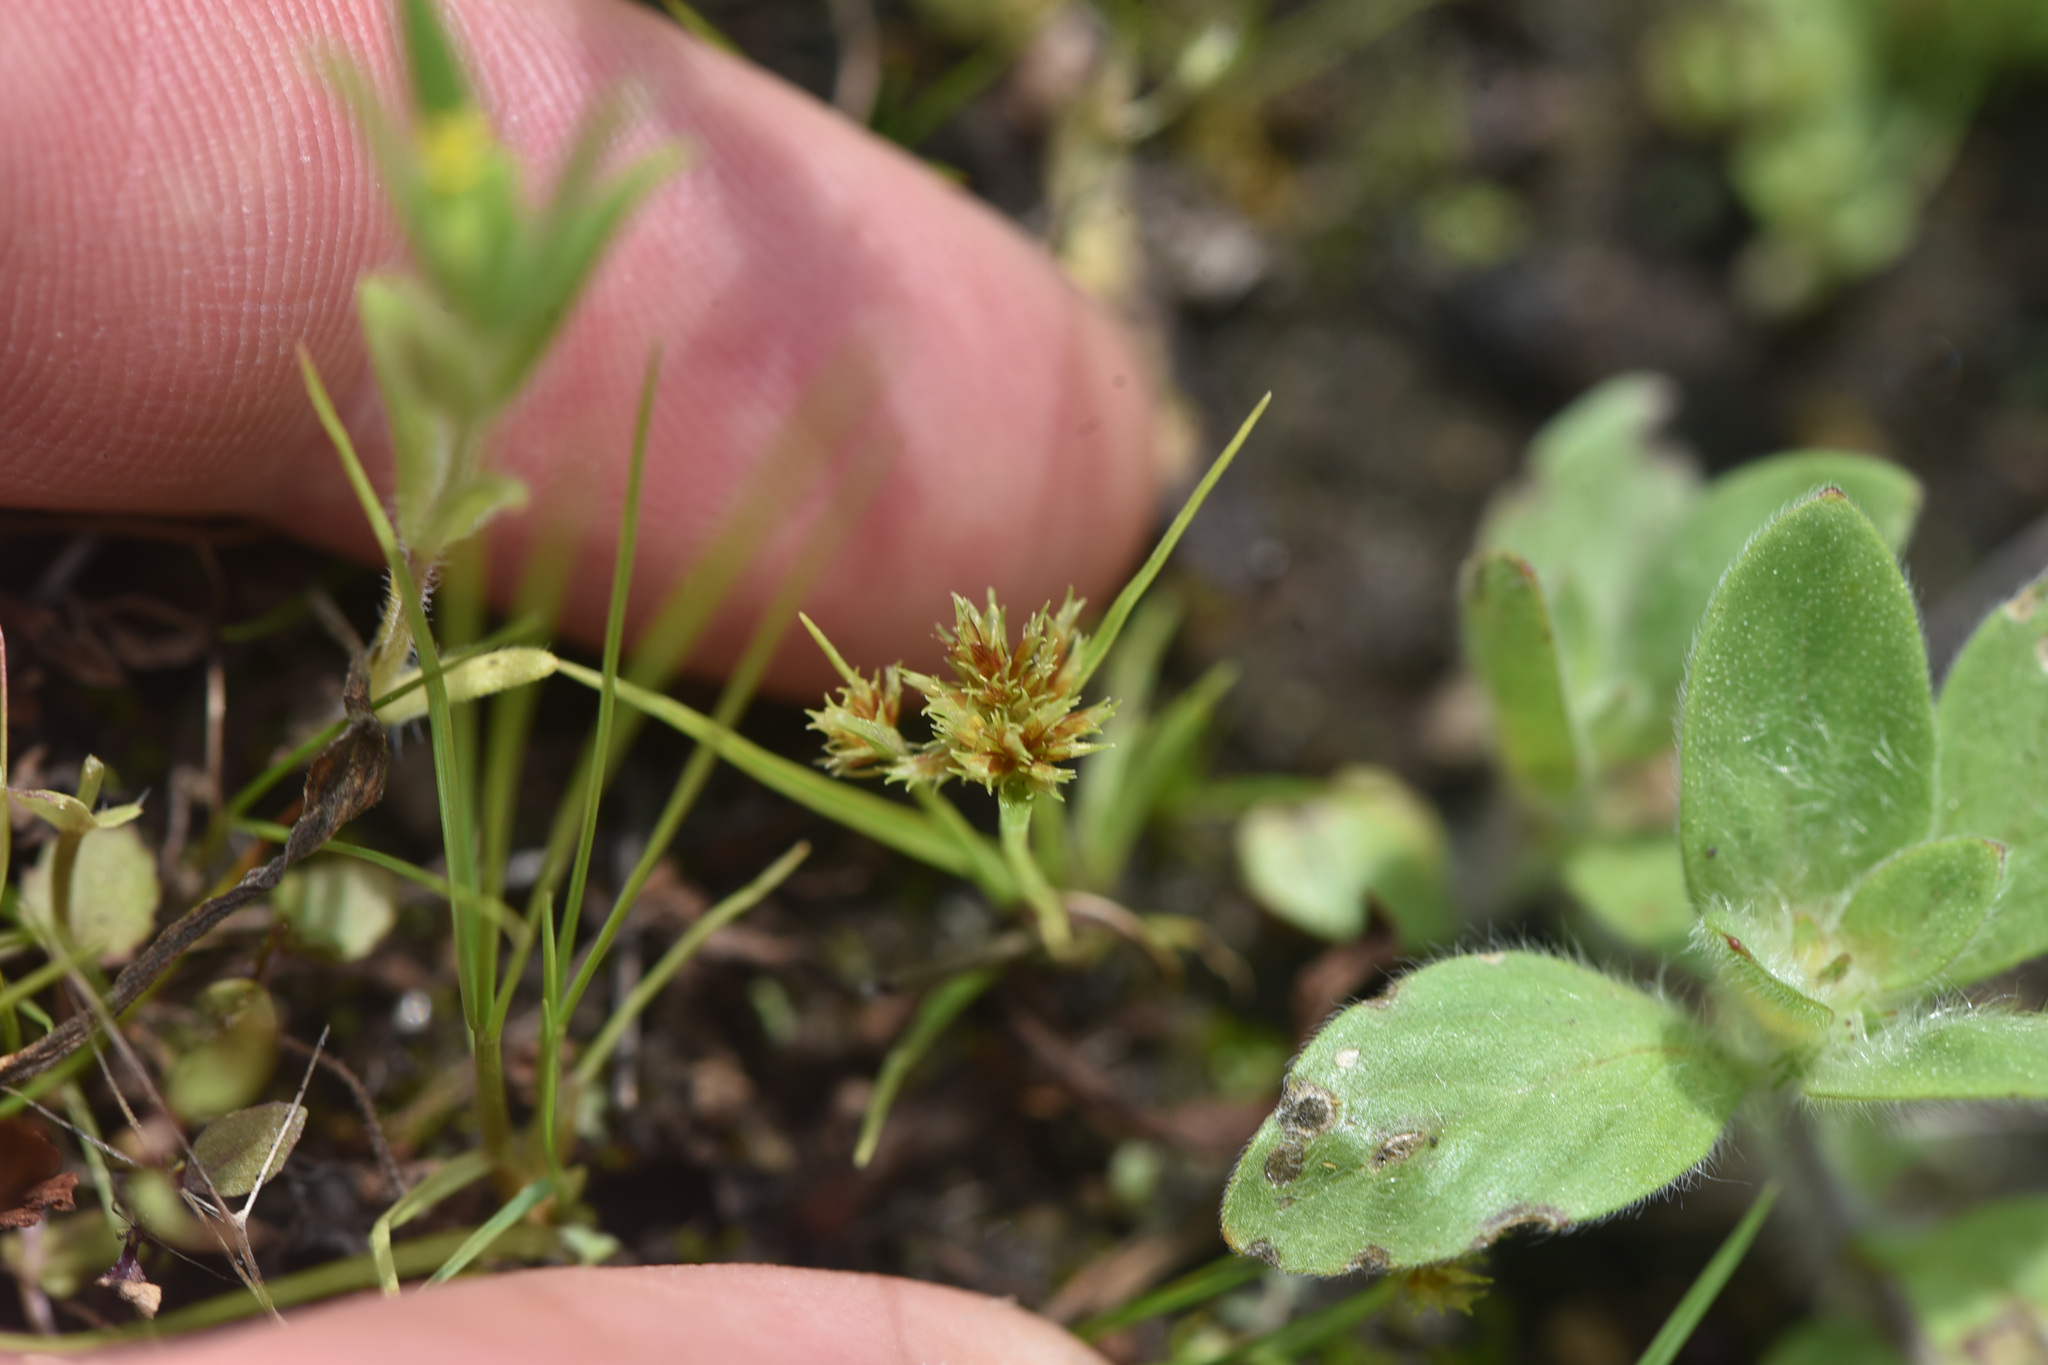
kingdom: Plantae
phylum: Tracheophyta
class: Liliopsida
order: Poales
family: Cyperaceae
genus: Cyperus
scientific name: Cyperus squarrosus
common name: Awned cyperus
